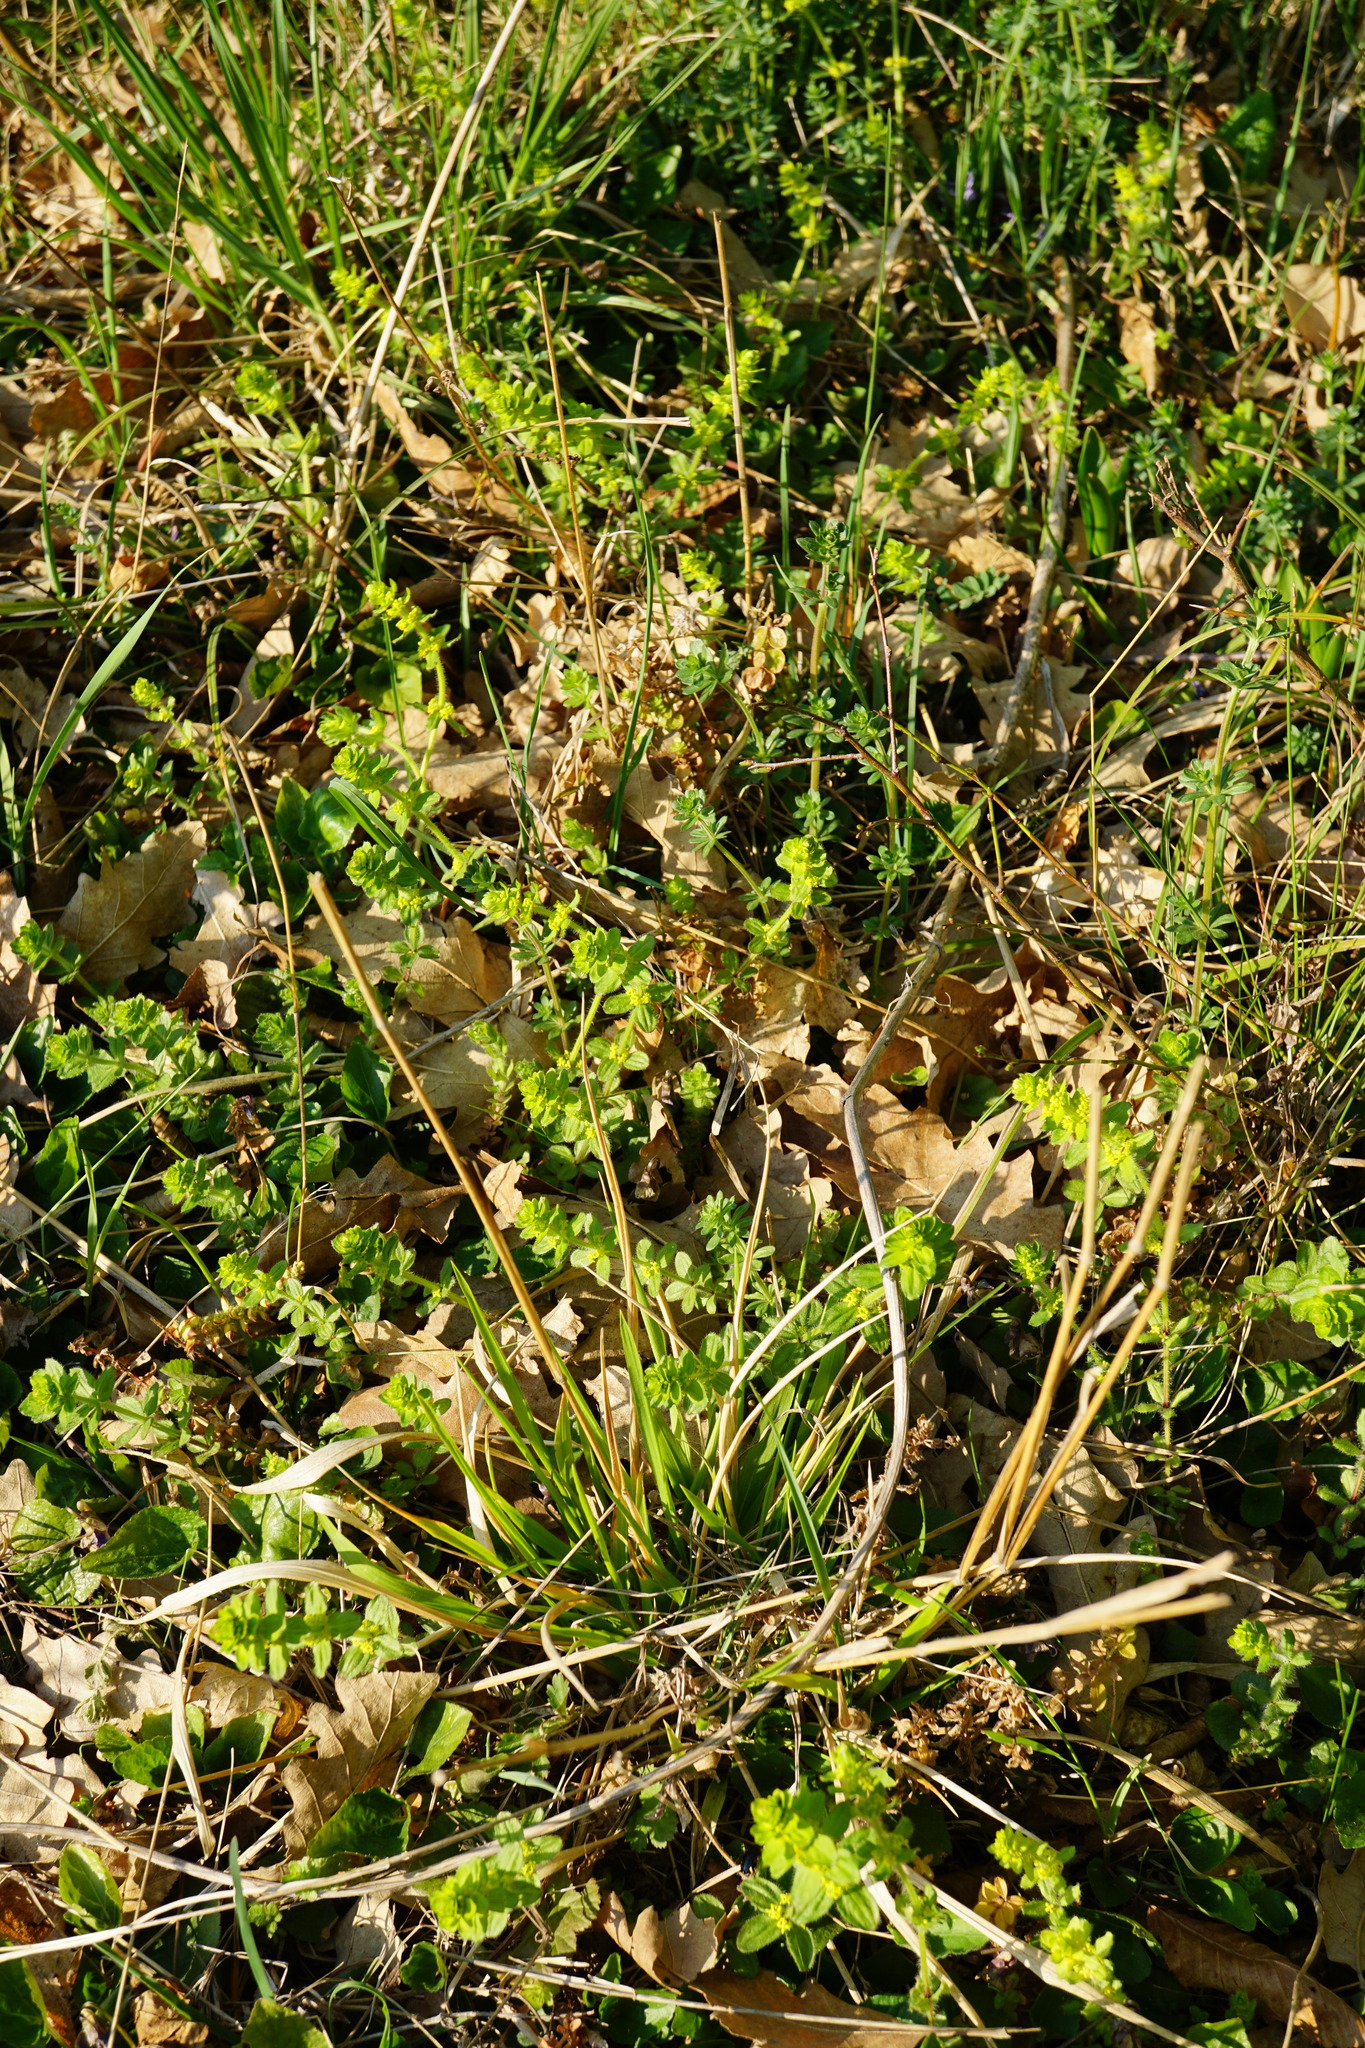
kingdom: Plantae
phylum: Tracheophyta
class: Magnoliopsida
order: Gentianales
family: Rubiaceae
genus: Cruciata
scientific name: Cruciata laevipes
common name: Crosswort
